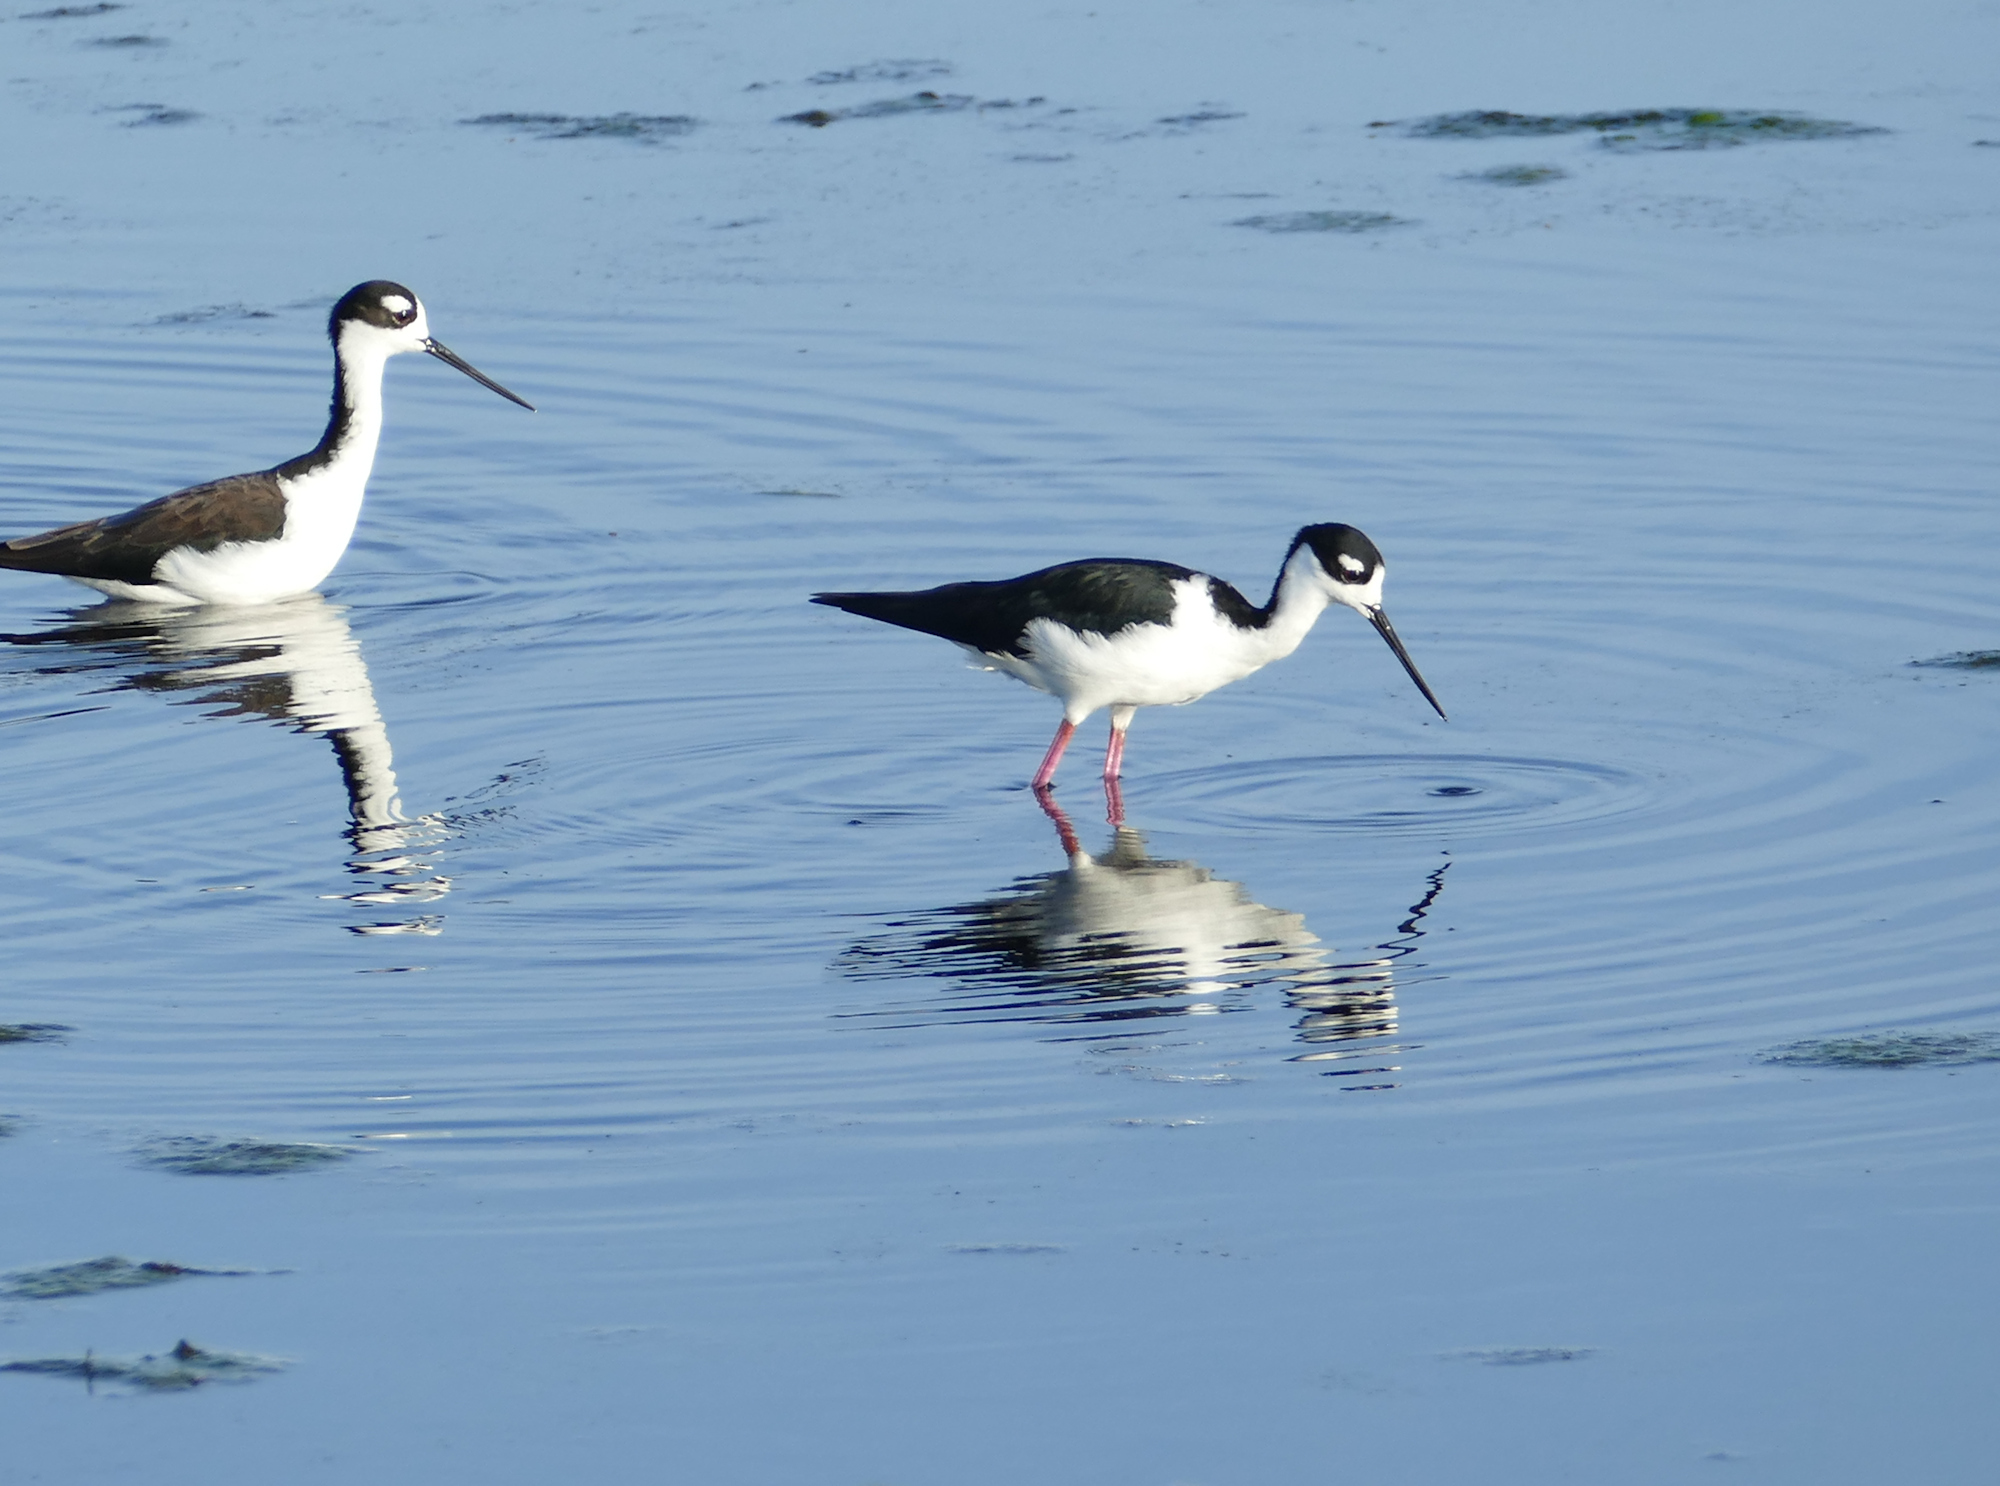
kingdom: Animalia
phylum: Chordata
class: Aves
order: Charadriiformes
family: Recurvirostridae
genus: Himantopus
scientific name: Himantopus mexicanus
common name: Black-necked stilt
